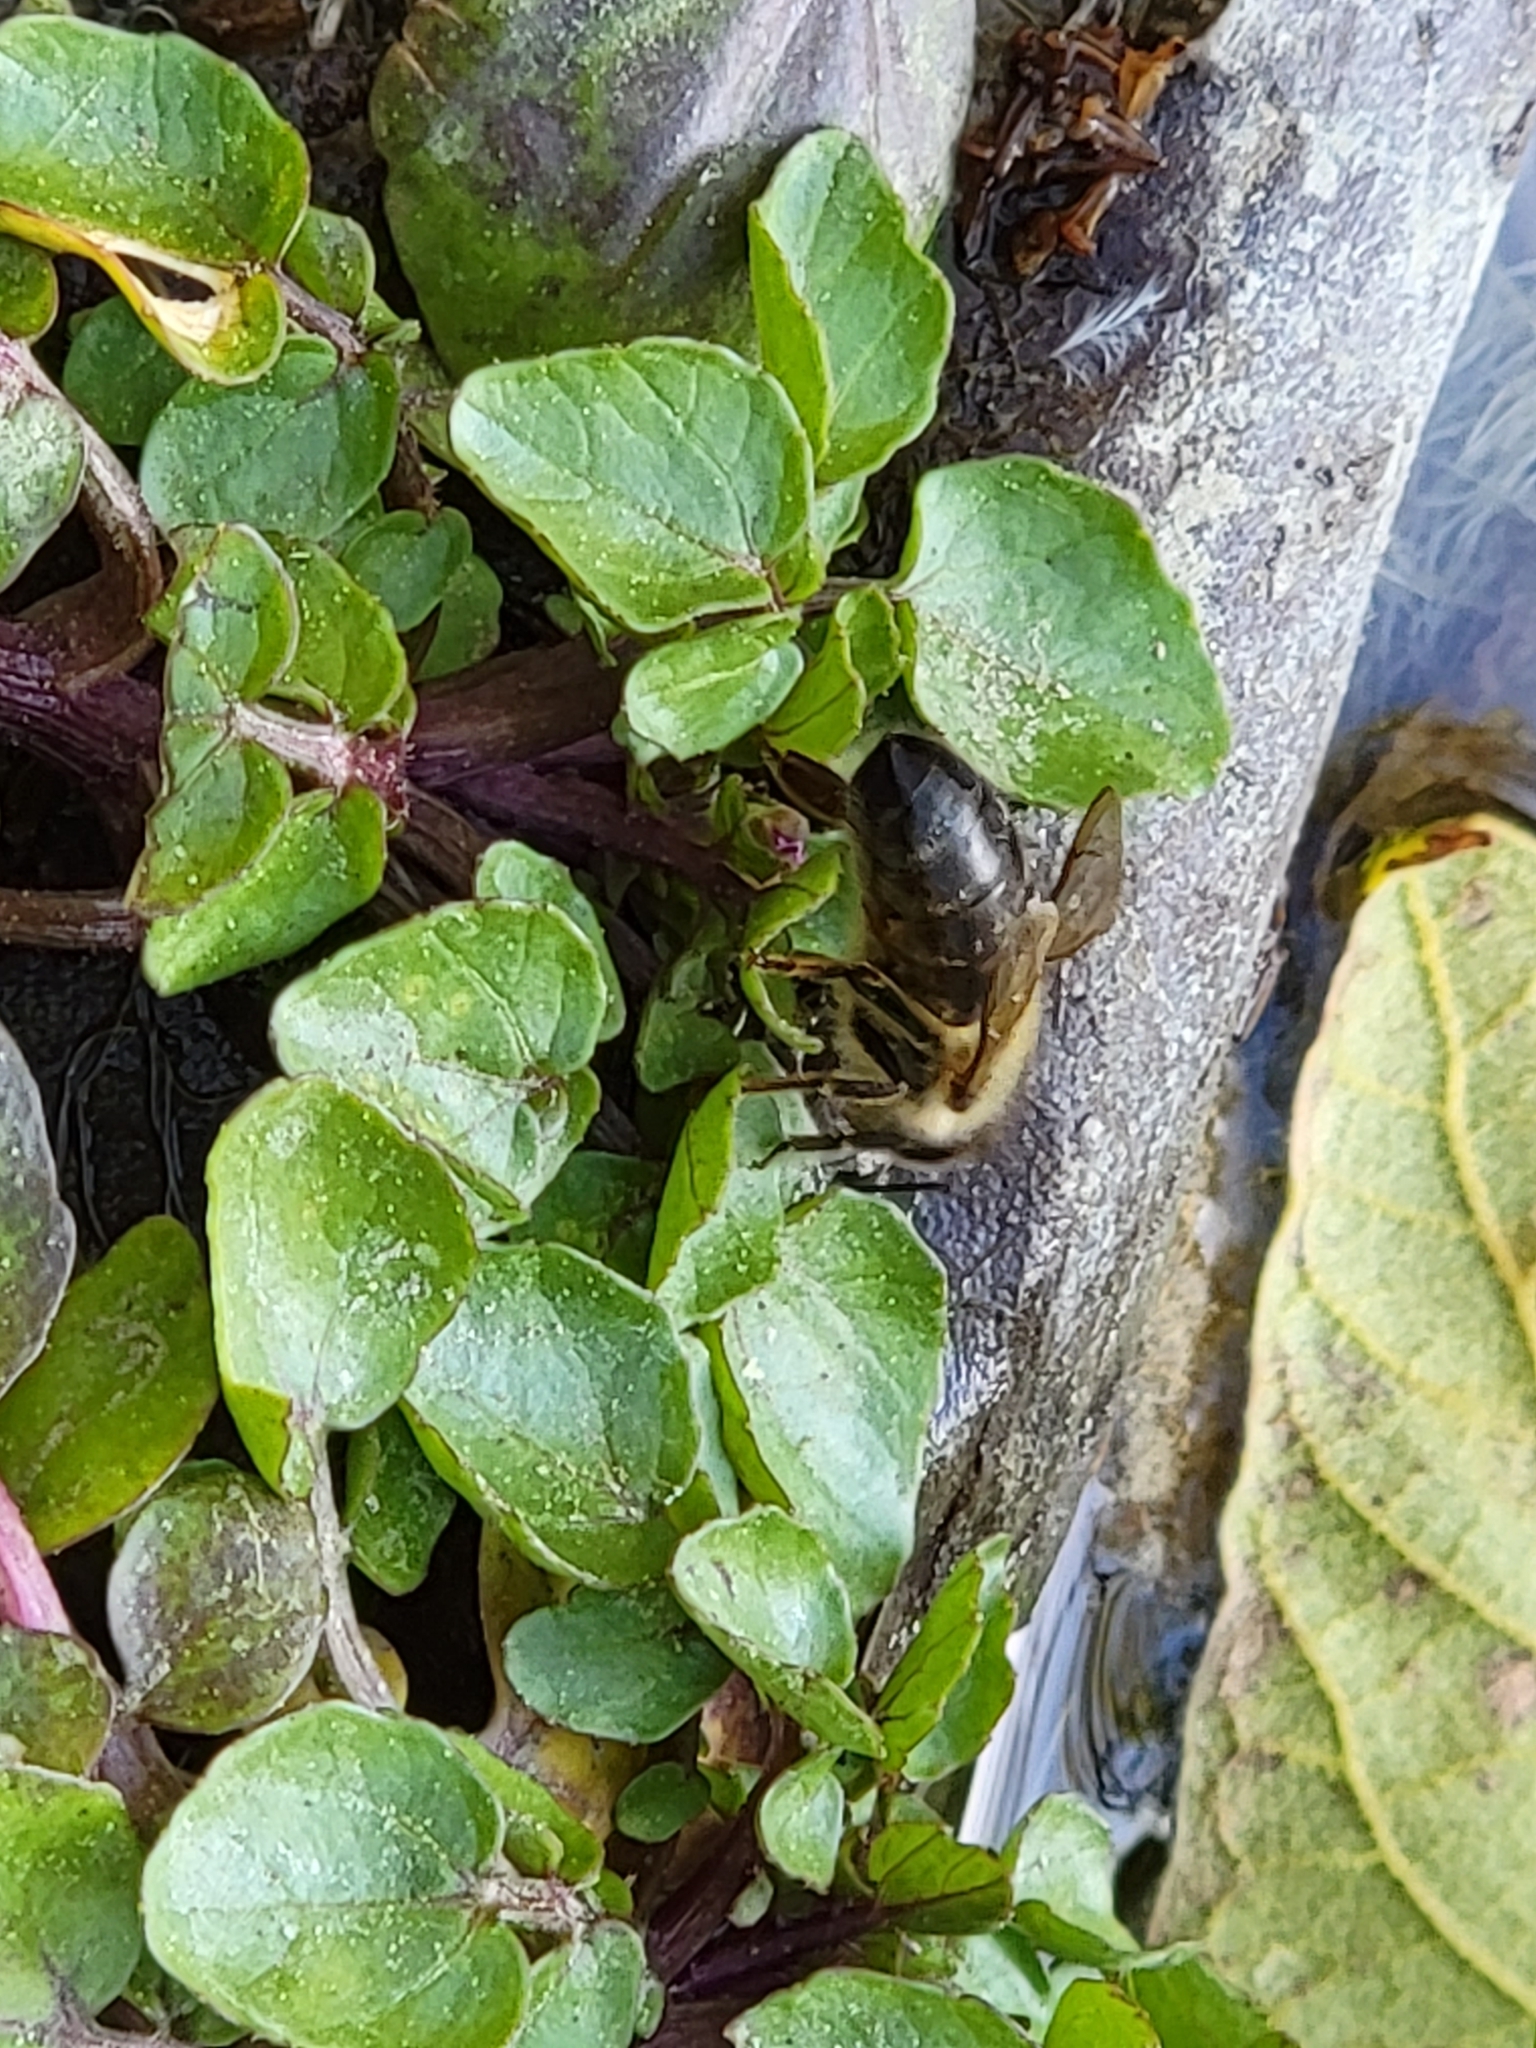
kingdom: Animalia
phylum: Arthropoda
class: Insecta
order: Hymenoptera
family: Apidae
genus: Apis
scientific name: Apis mellifera
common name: Honey bee
